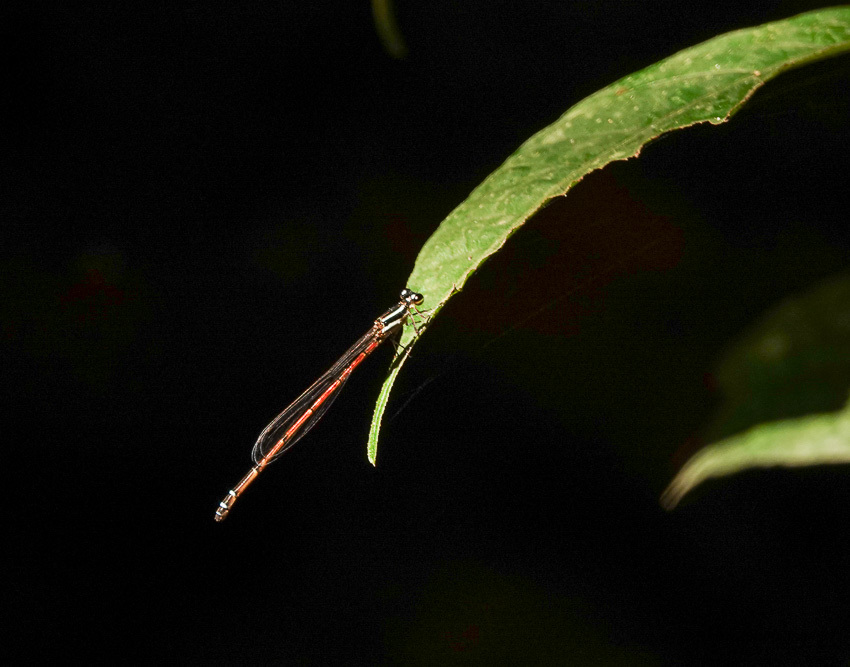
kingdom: Animalia
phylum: Arthropoda
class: Insecta
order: Odonata
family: Coenagrionidae
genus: Mortonagrion
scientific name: Mortonagrion aborense
